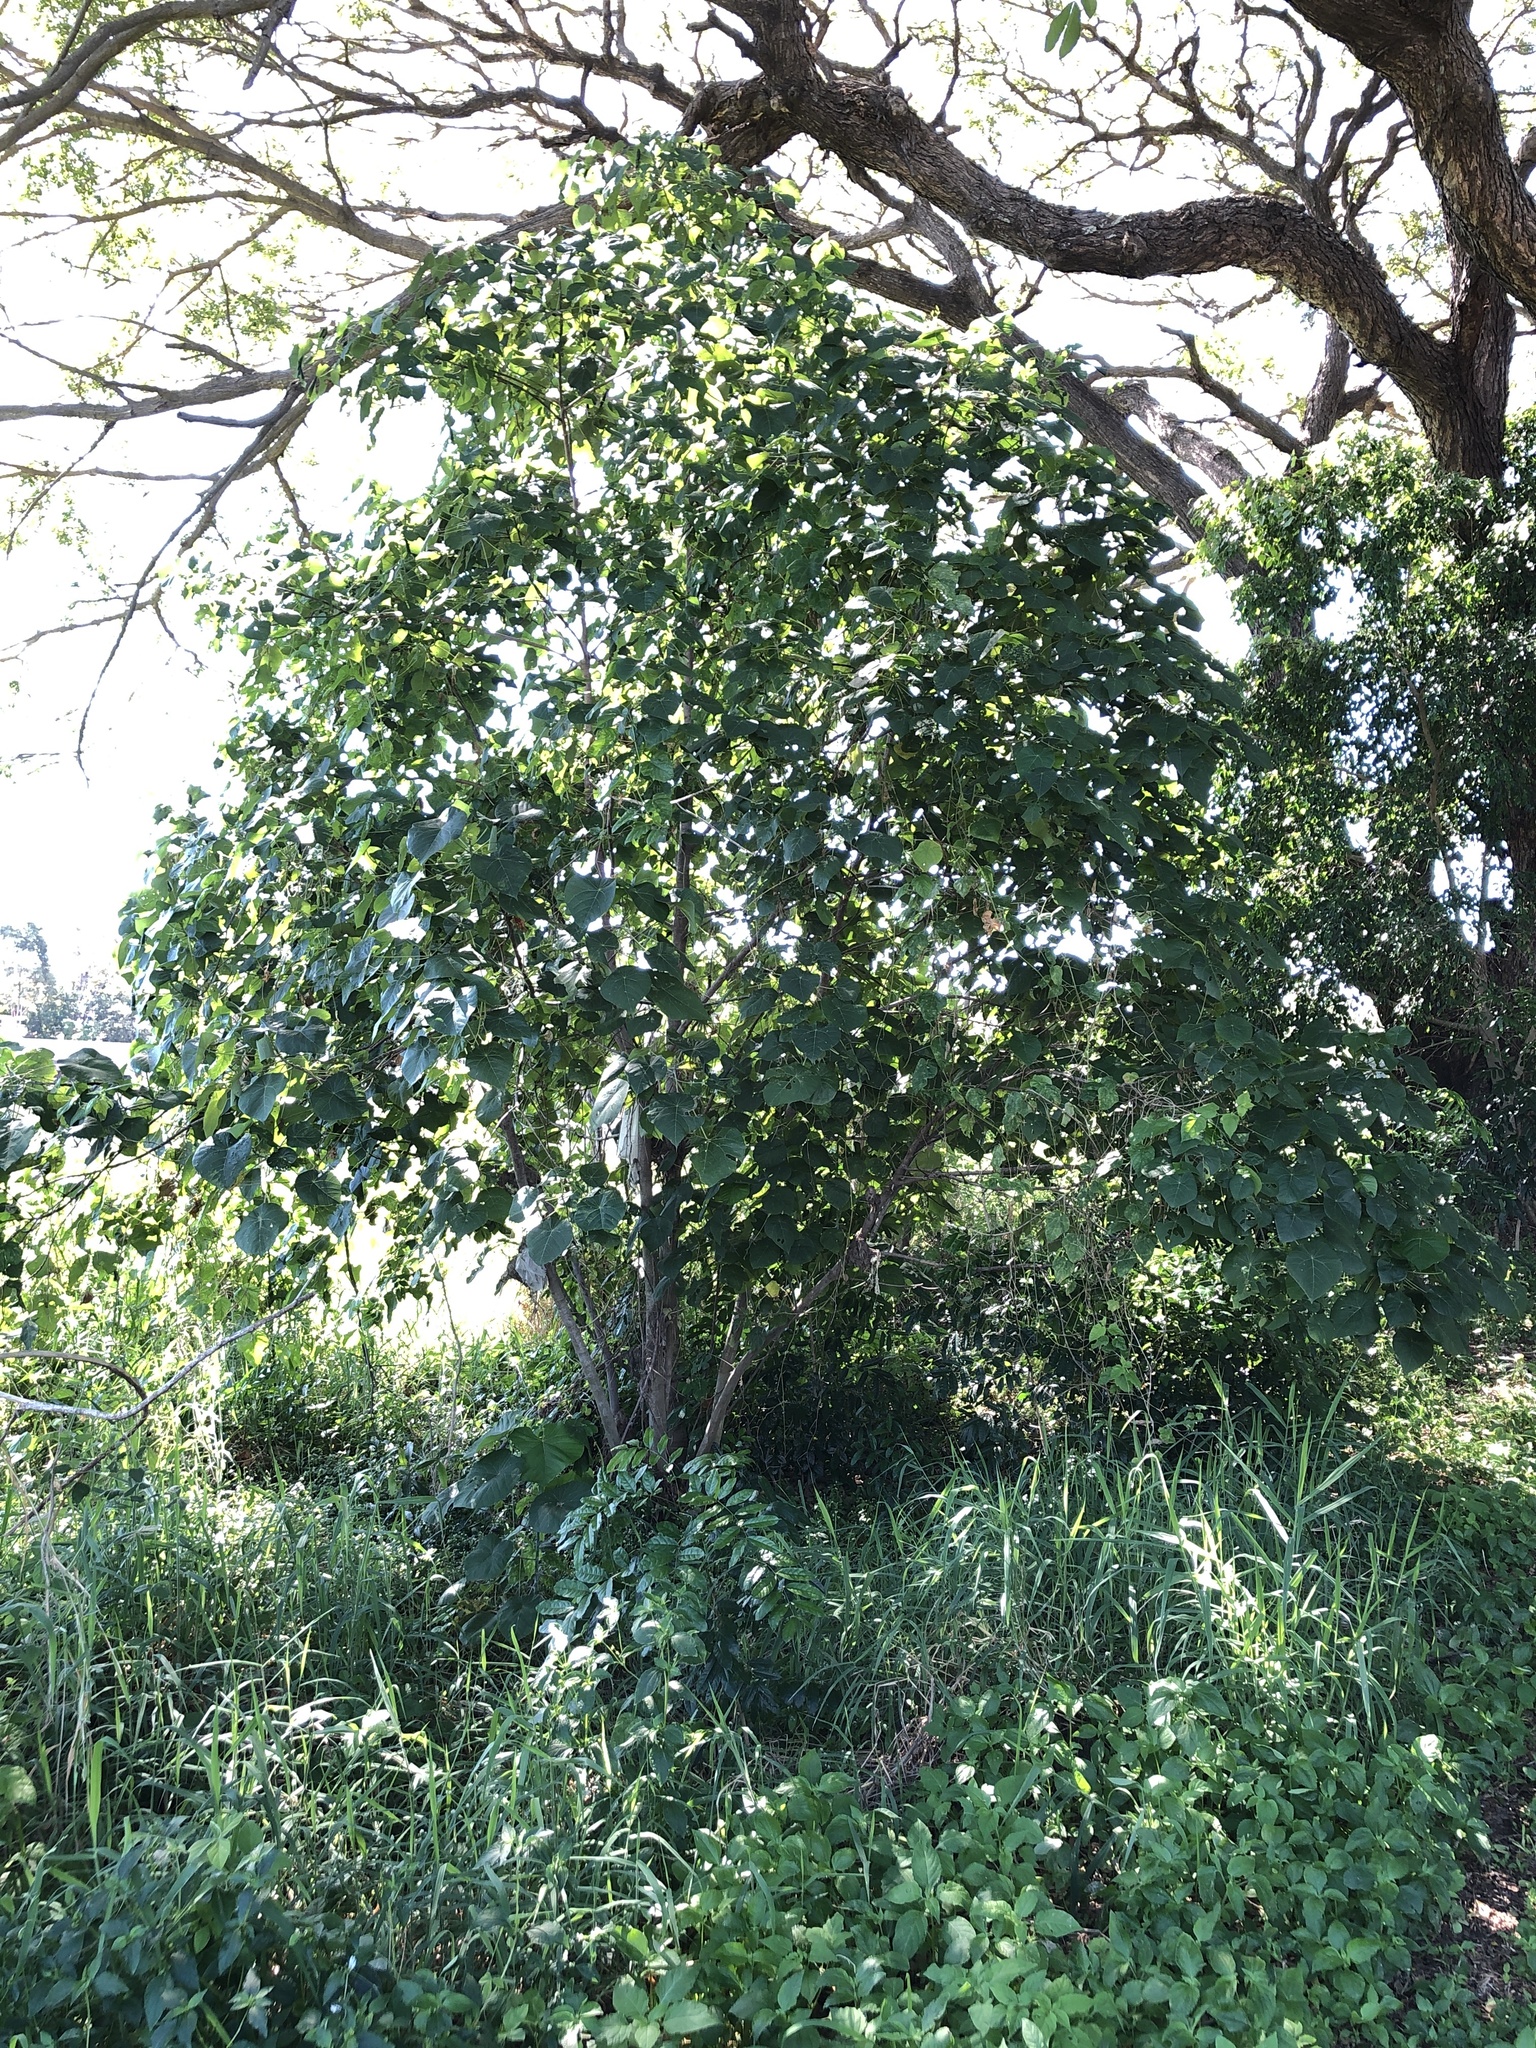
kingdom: Plantae
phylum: Tracheophyta
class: Magnoliopsida
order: Malpighiales
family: Euphorbiaceae
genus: Macaranga
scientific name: Macaranga tanarius
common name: Parasol leaf tree
